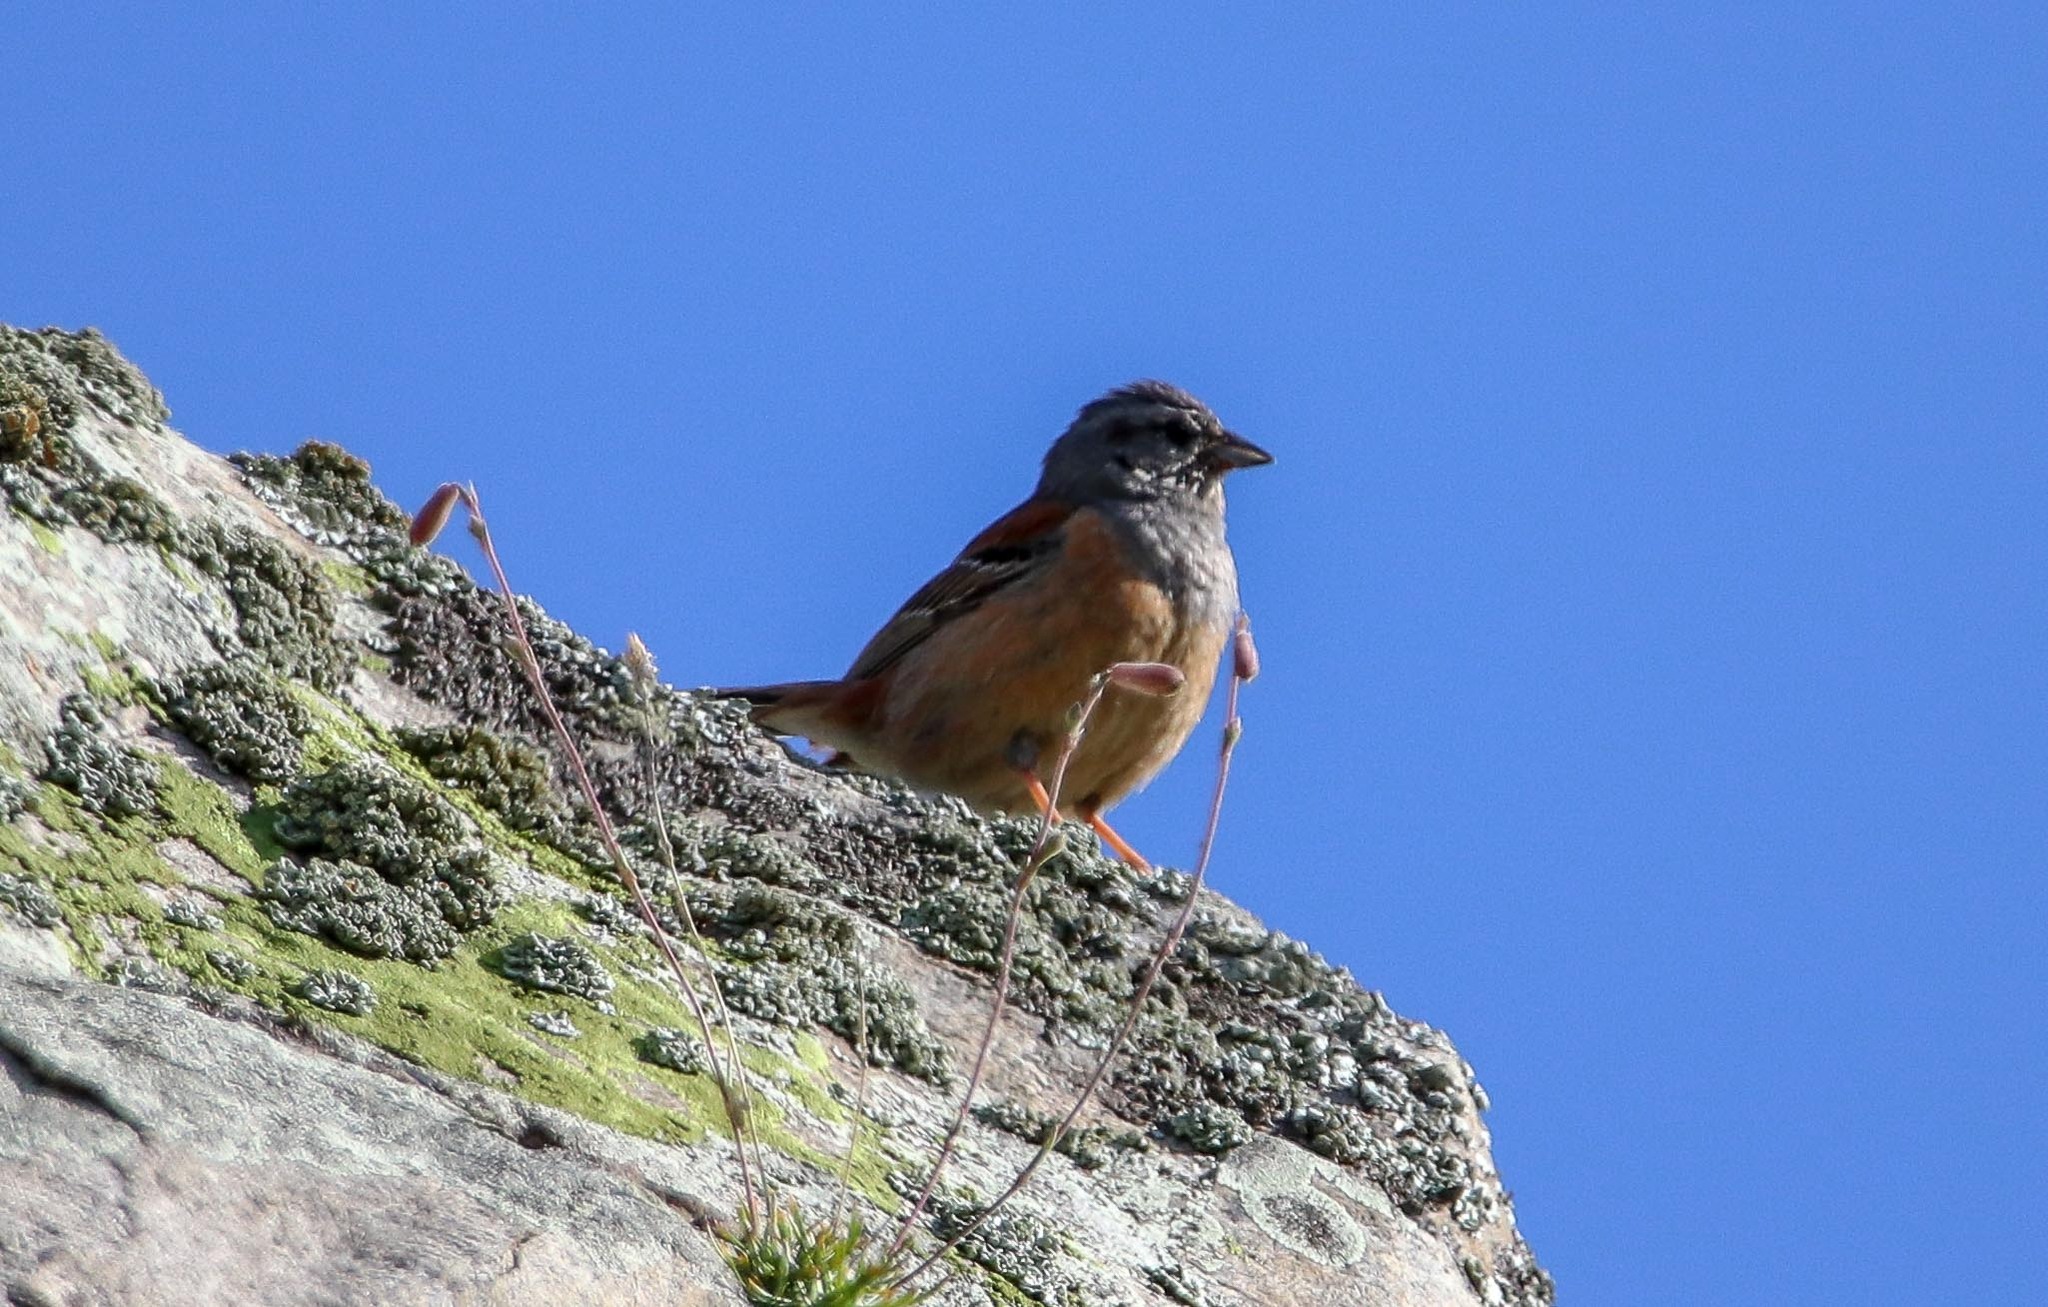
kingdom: Animalia
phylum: Chordata
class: Aves
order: Passeriformes
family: Emberizidae
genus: Emberiza
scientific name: Emberiza godlewskii
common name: Godlewski's bunting
